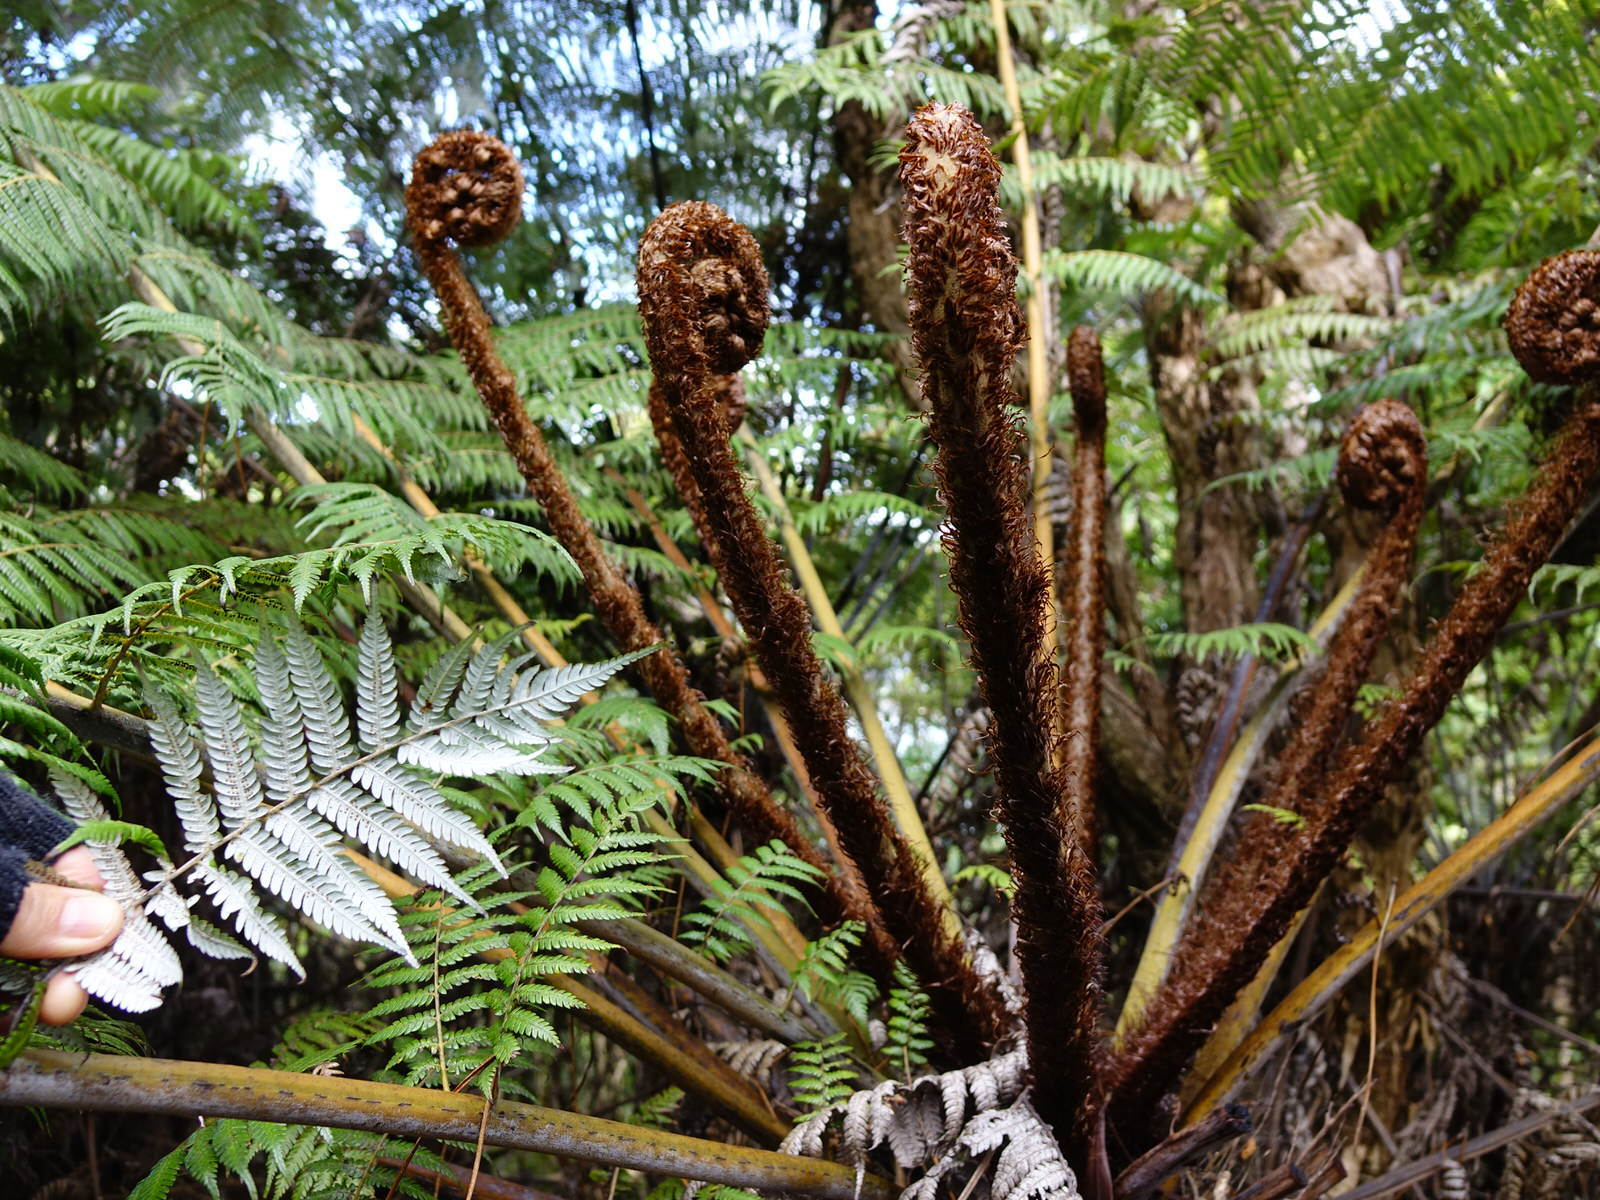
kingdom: Plantae
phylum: Tracheophyta
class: Polypodiopsida
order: Cyatheales
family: Cyatheaceae
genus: Alsophila
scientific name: Alsophila dealbata
